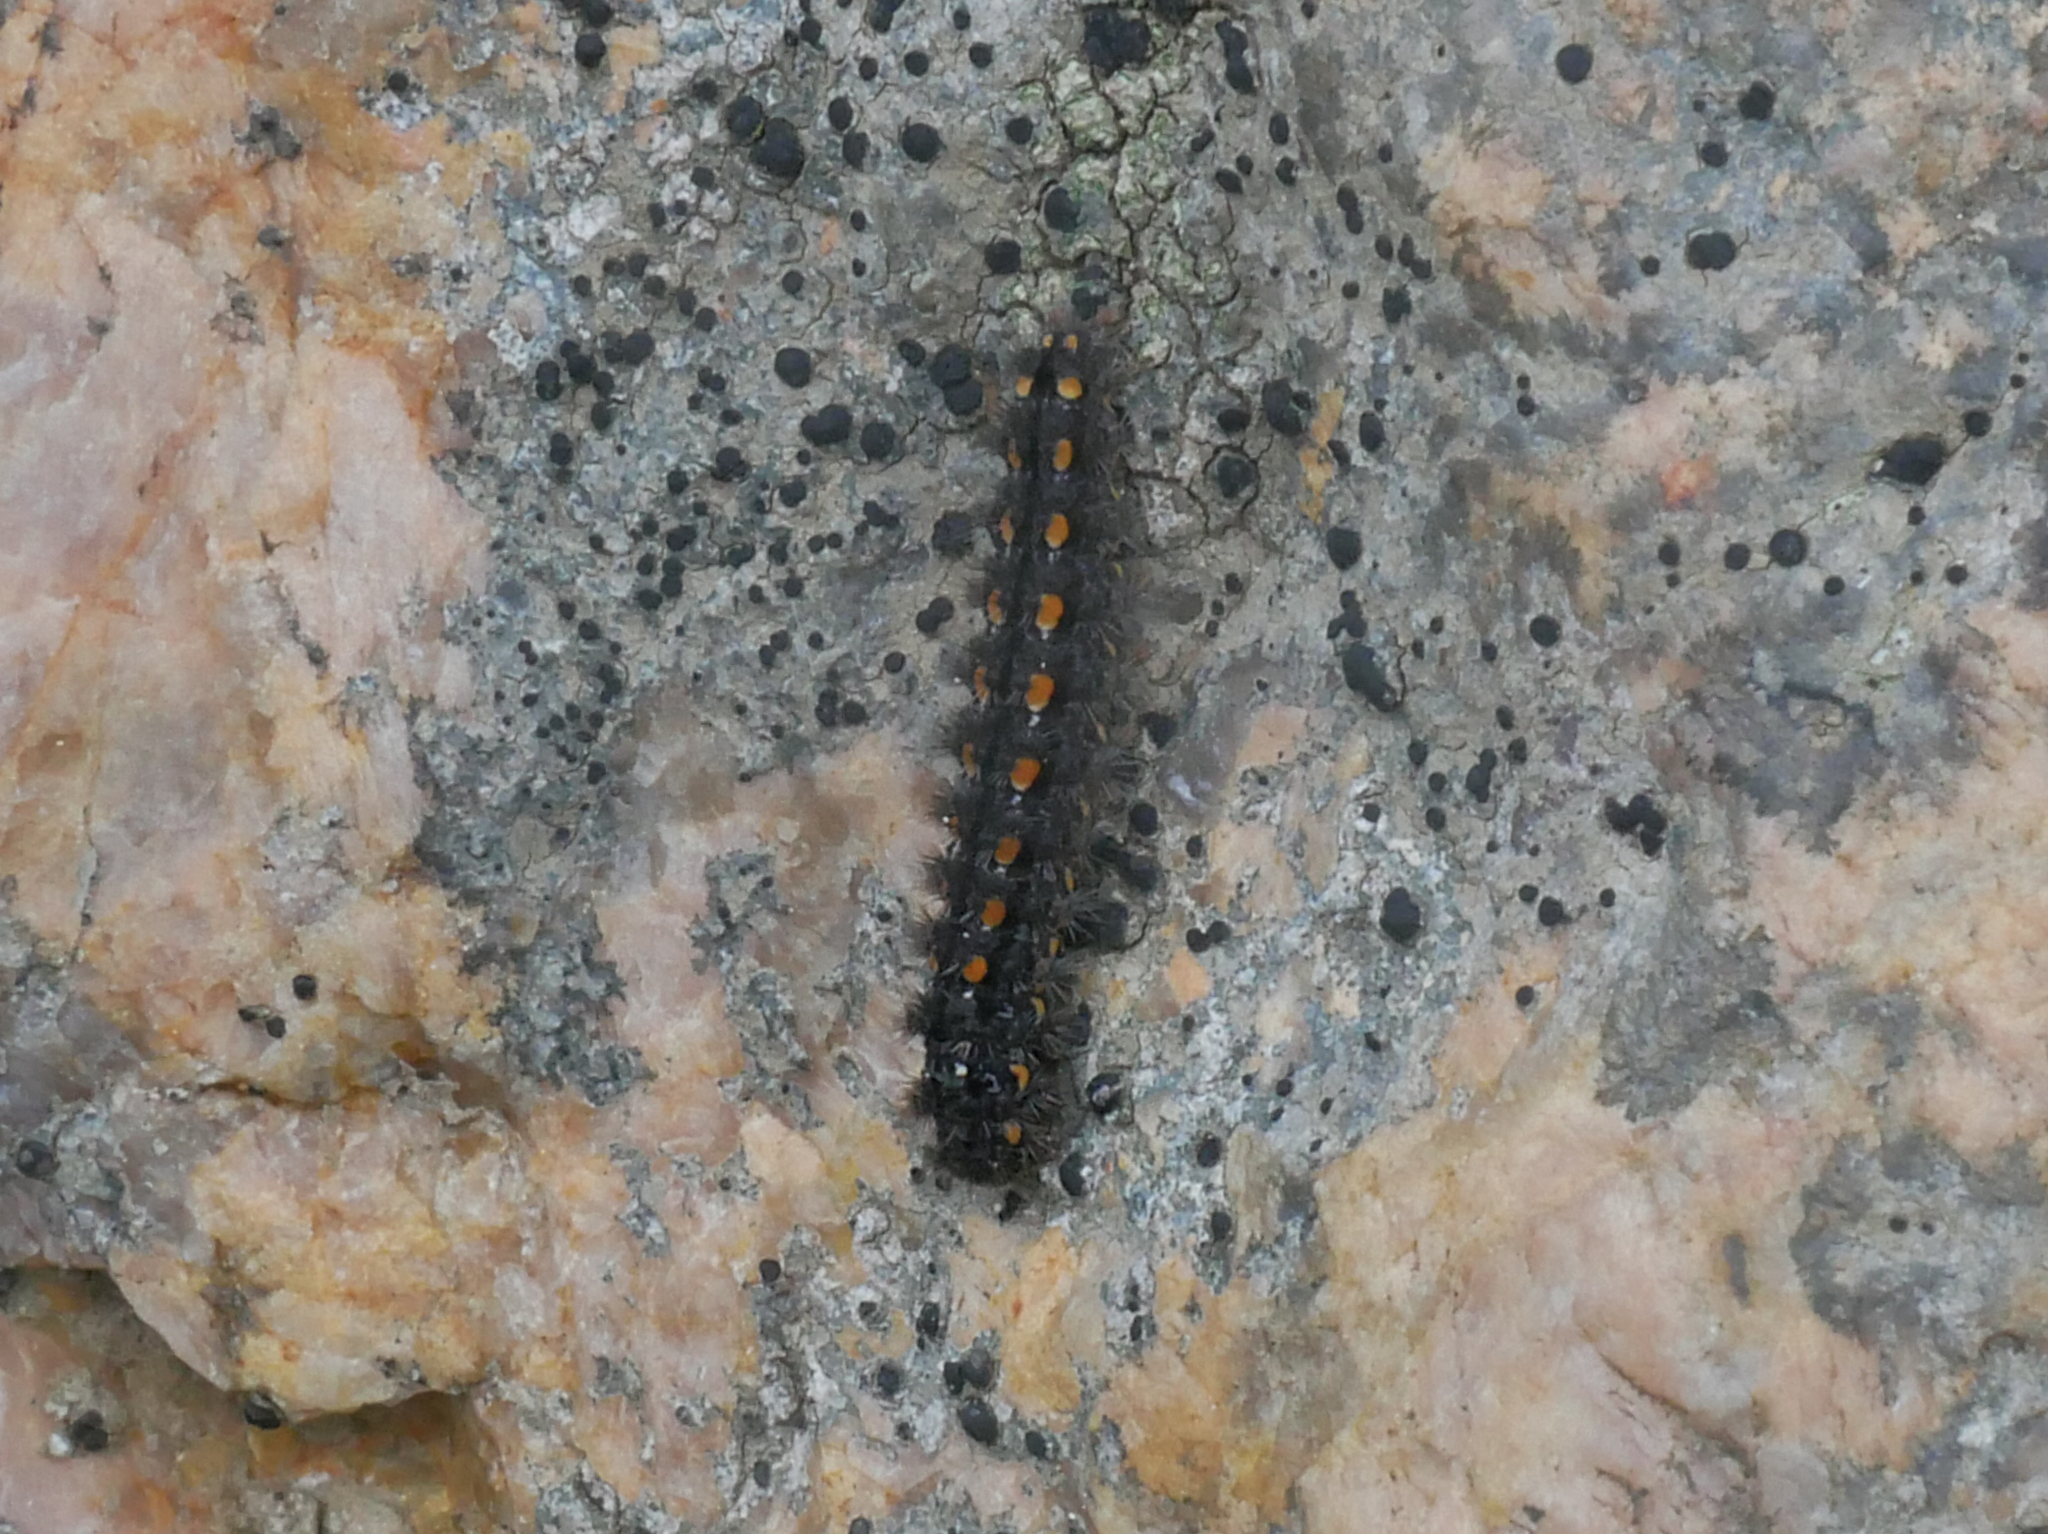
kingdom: Animalia
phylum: Arthropoda
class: Insecta
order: Lepidoptera
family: Erebidae
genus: Manulea
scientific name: Manulea complana
